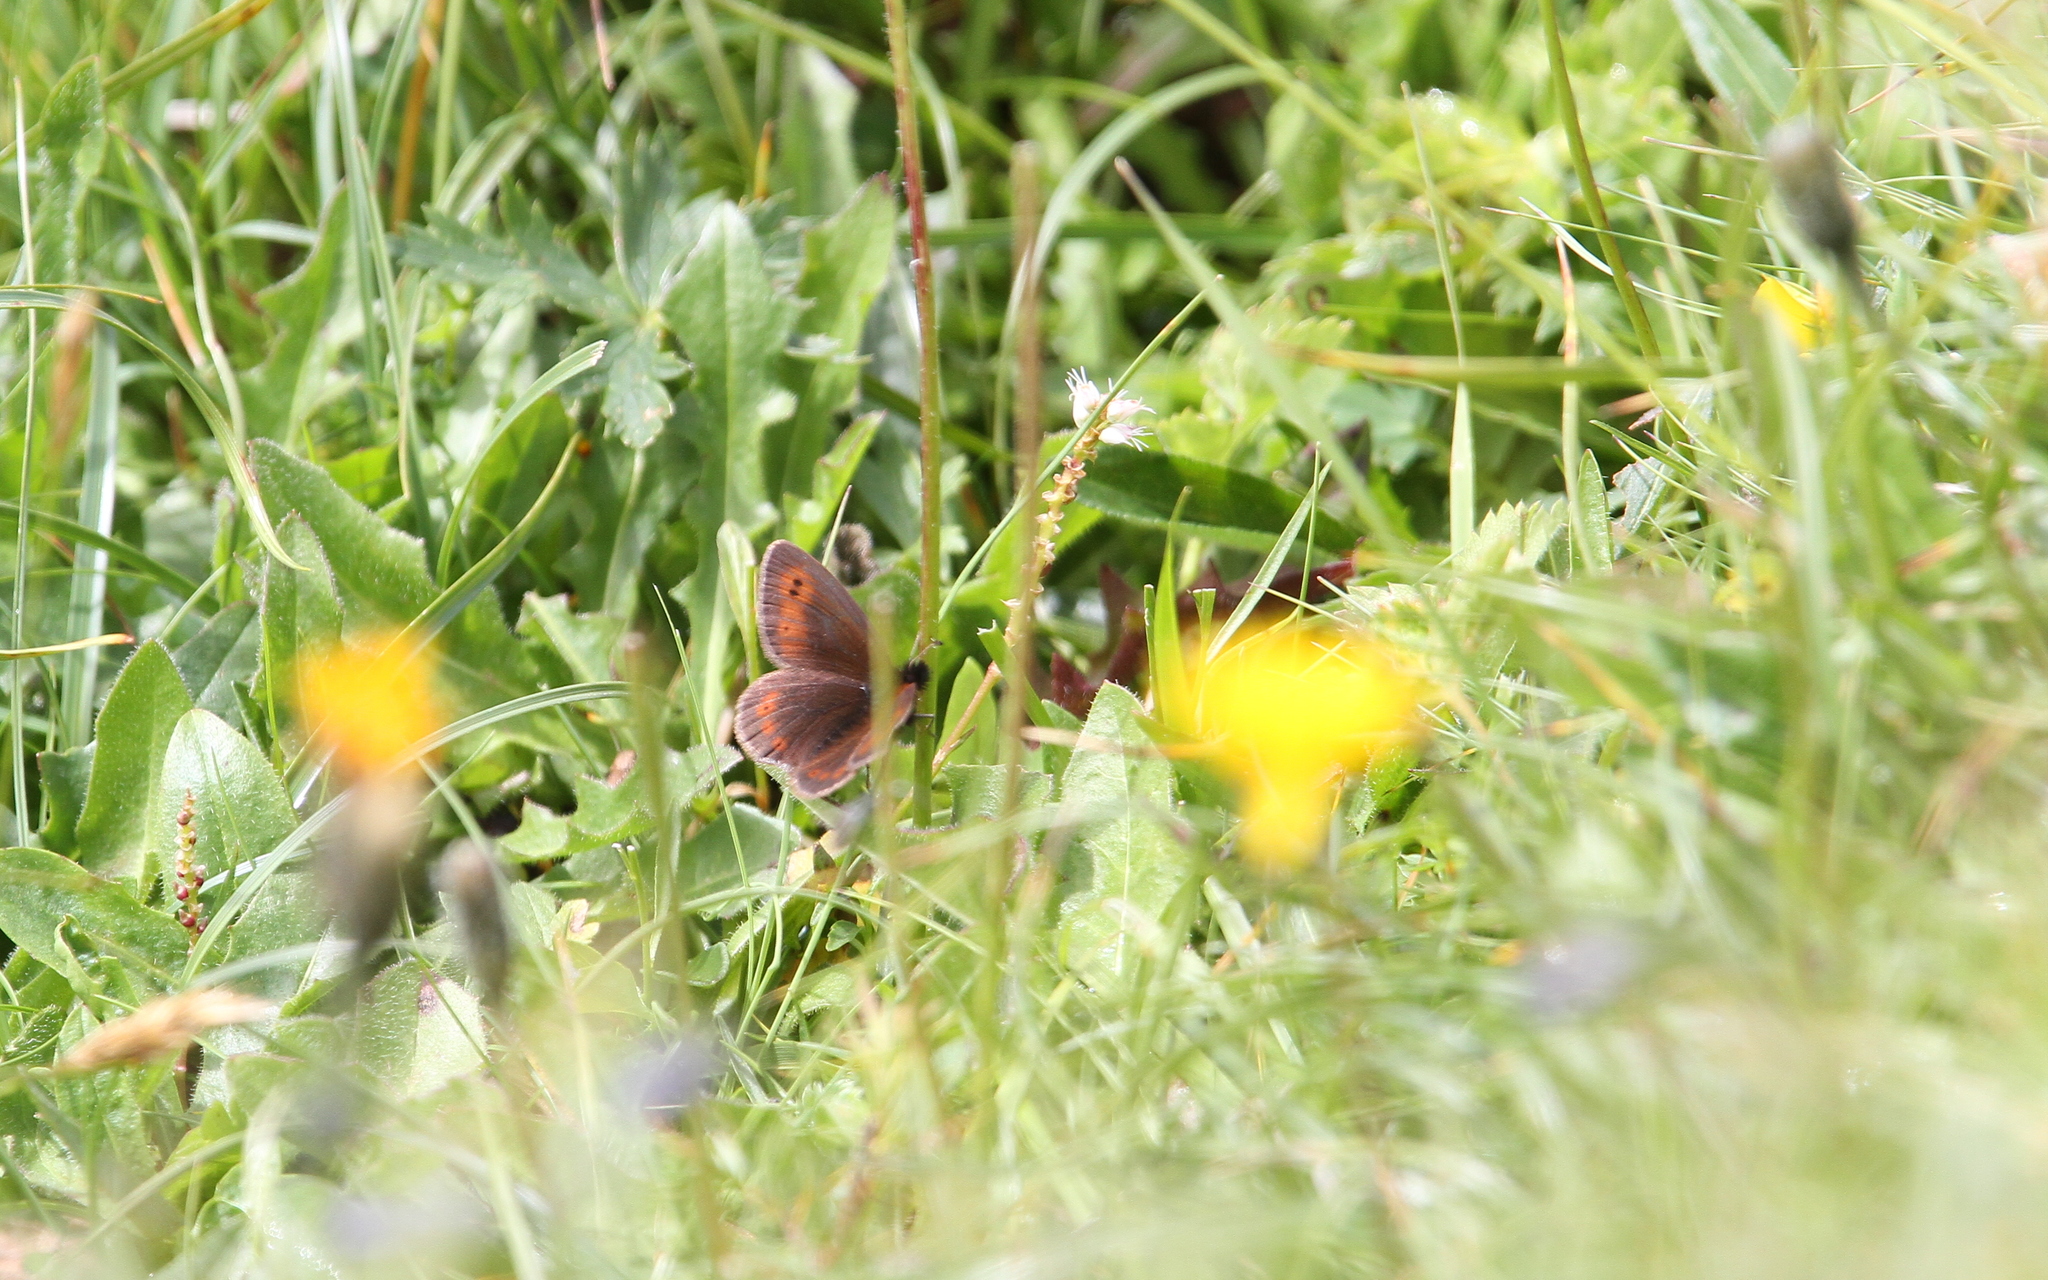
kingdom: Animalia
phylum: Arthropoda
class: Insecta
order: Lepidoptera
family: Nymphalidae
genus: Erebia
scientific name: Erebia epiphron
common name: Mountain ringlet
